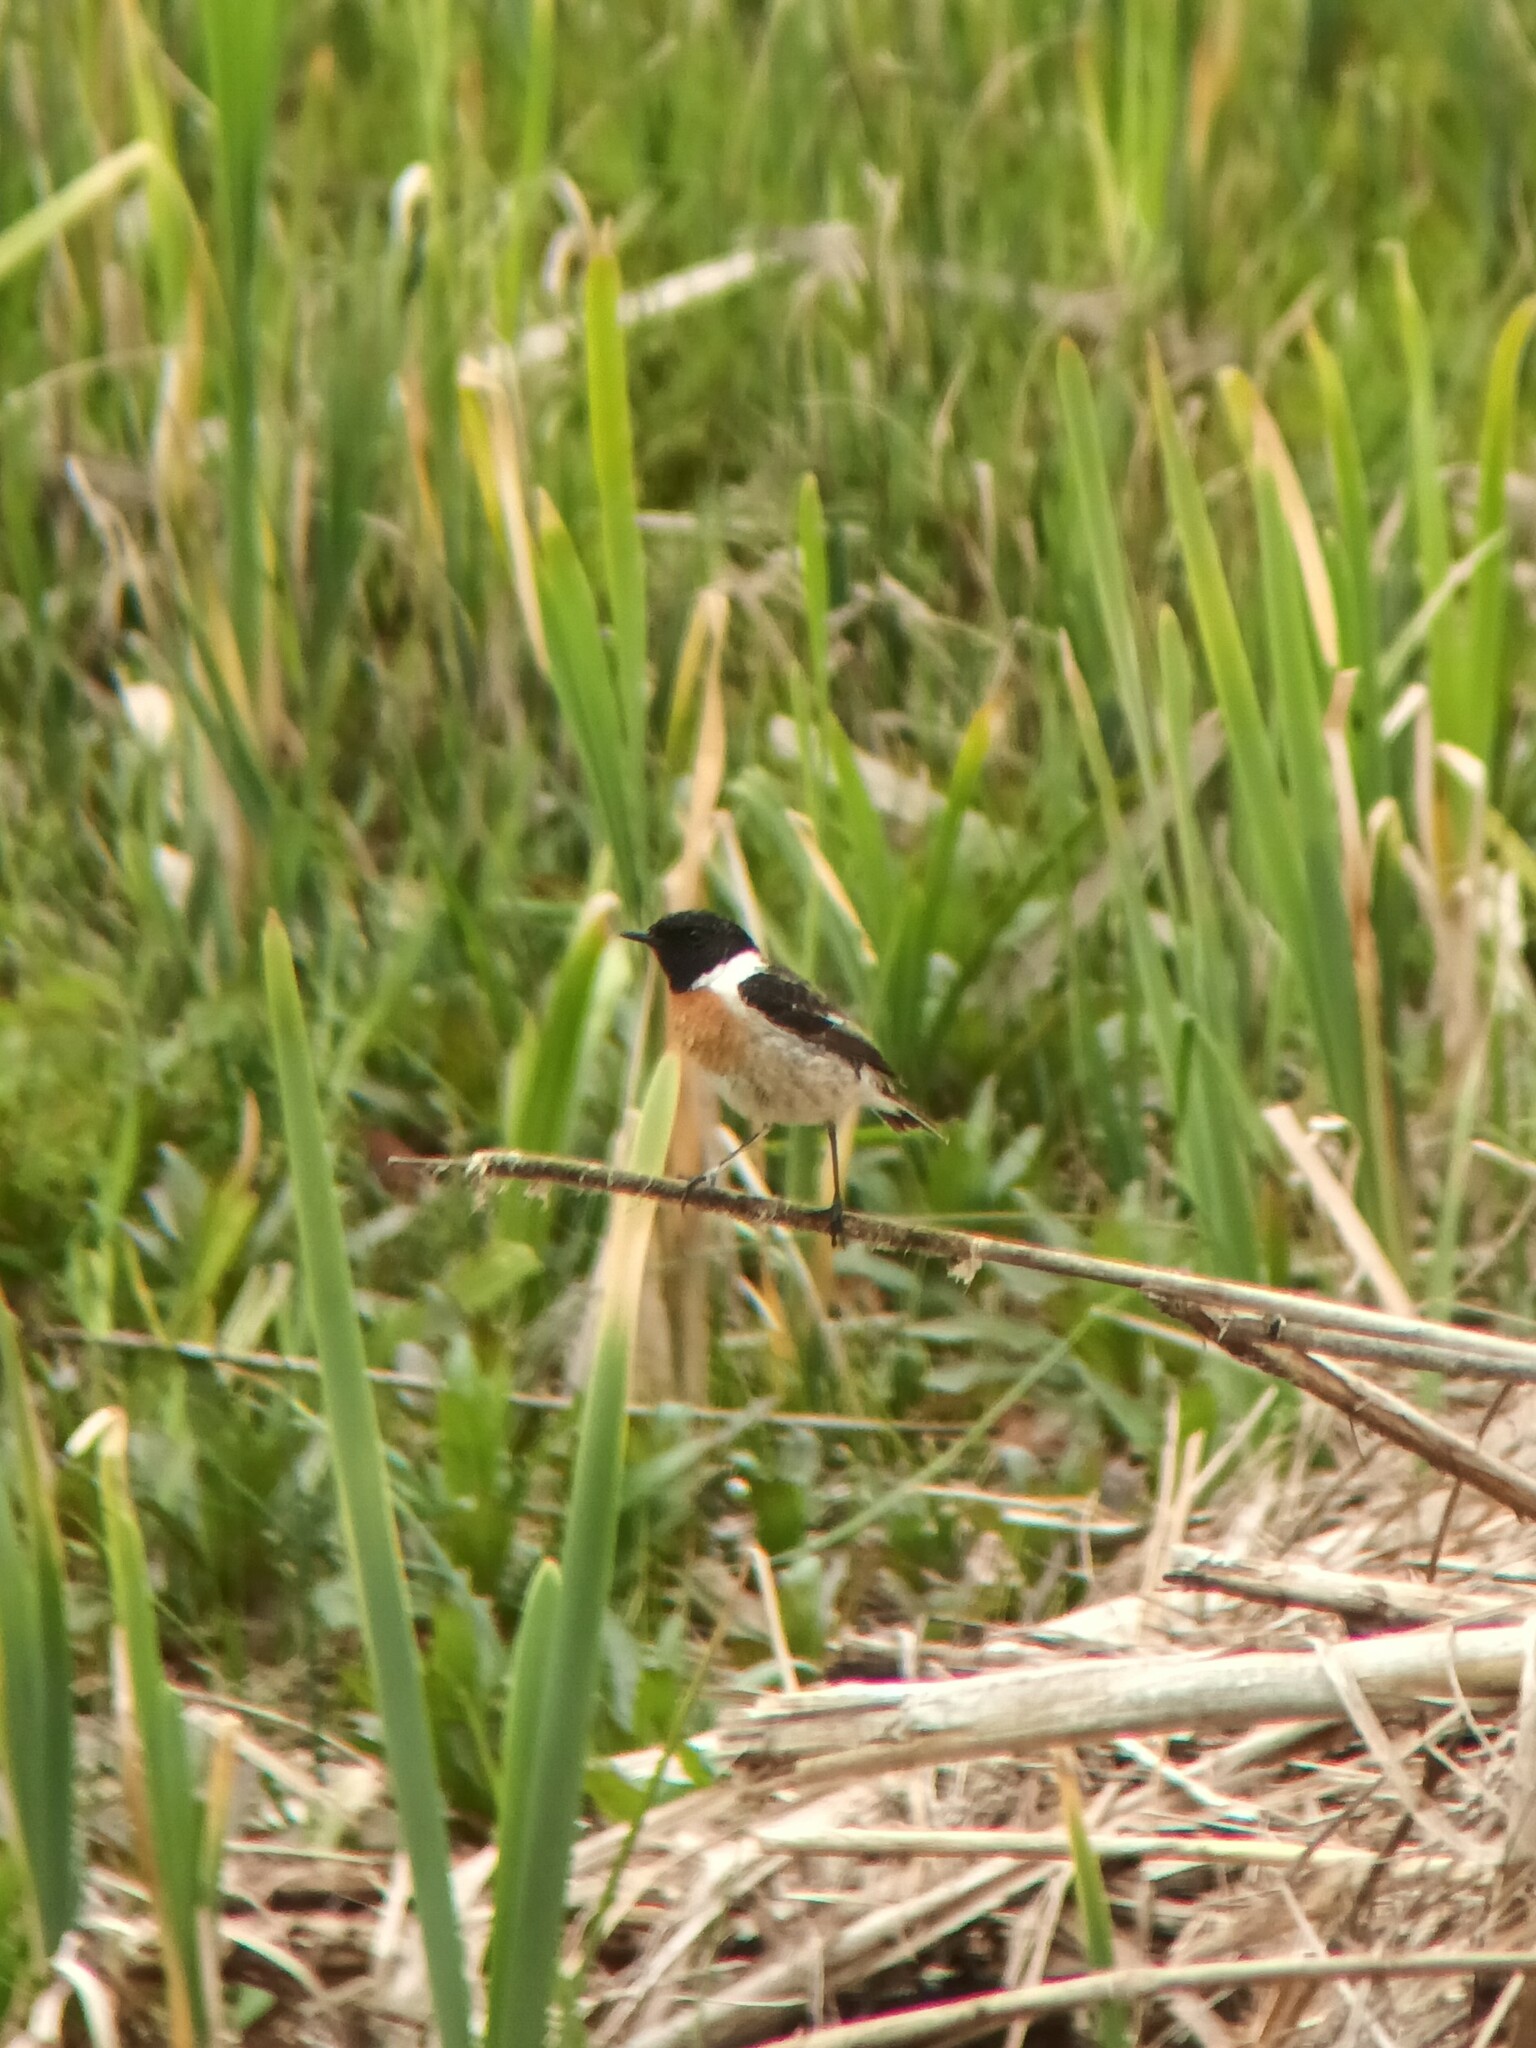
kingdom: Animalia
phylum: Chordata
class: Aves
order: Passeriformes
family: Muscicapidae
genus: Saxicola
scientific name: Saxicola rubicola
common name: European stonechat
